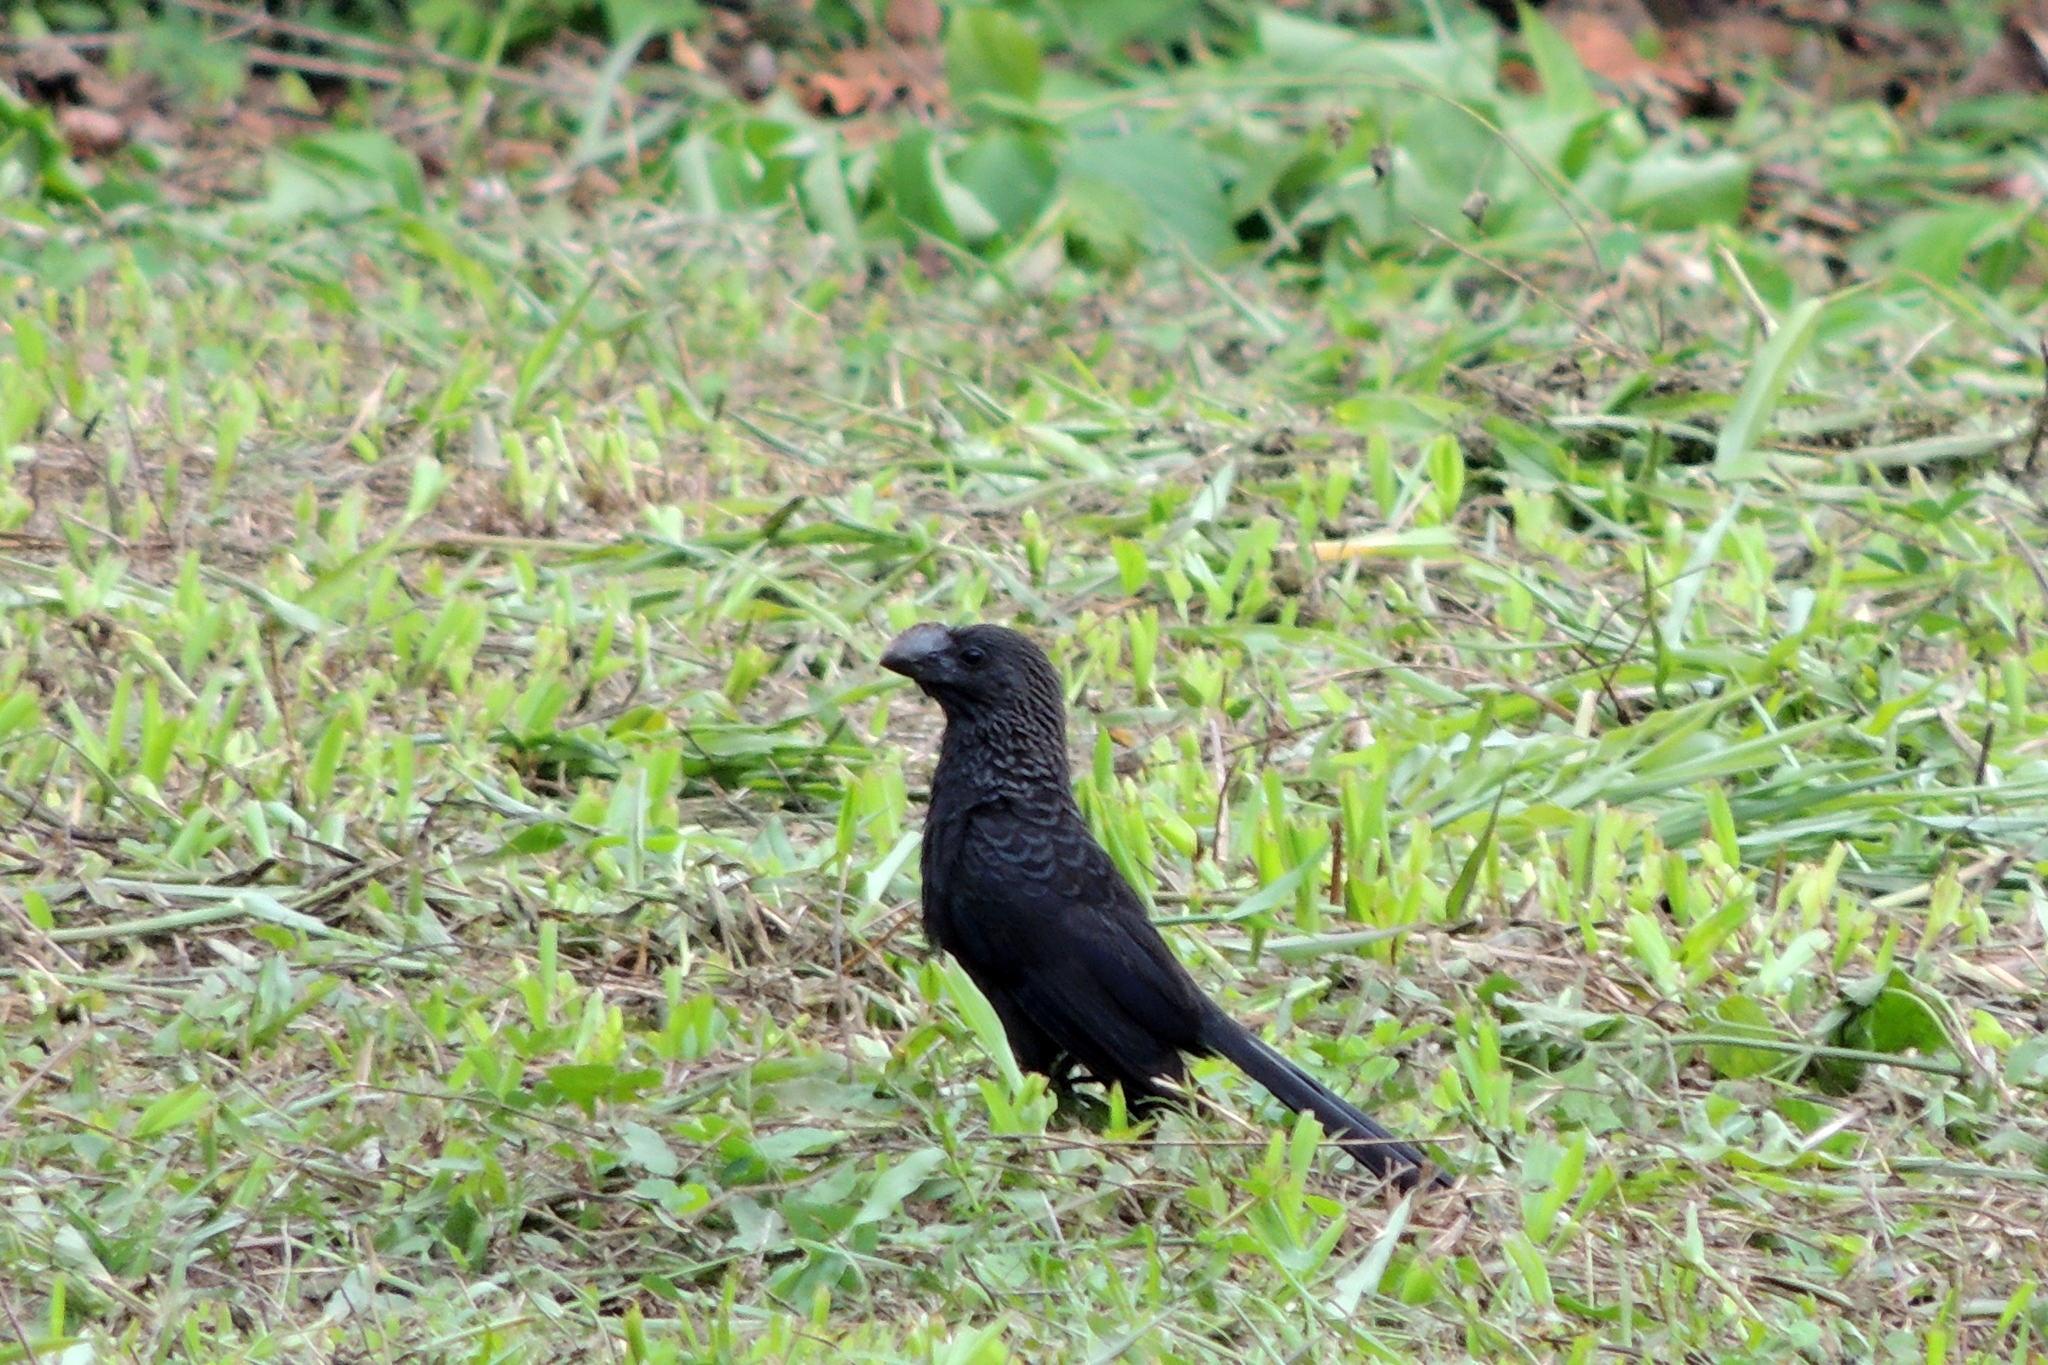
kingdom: Animalia
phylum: Chordata
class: Aves
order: Cuculiformes
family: Cuculidae
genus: Crotophaga
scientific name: Crotophaga ani
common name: Smooth-billed ani
